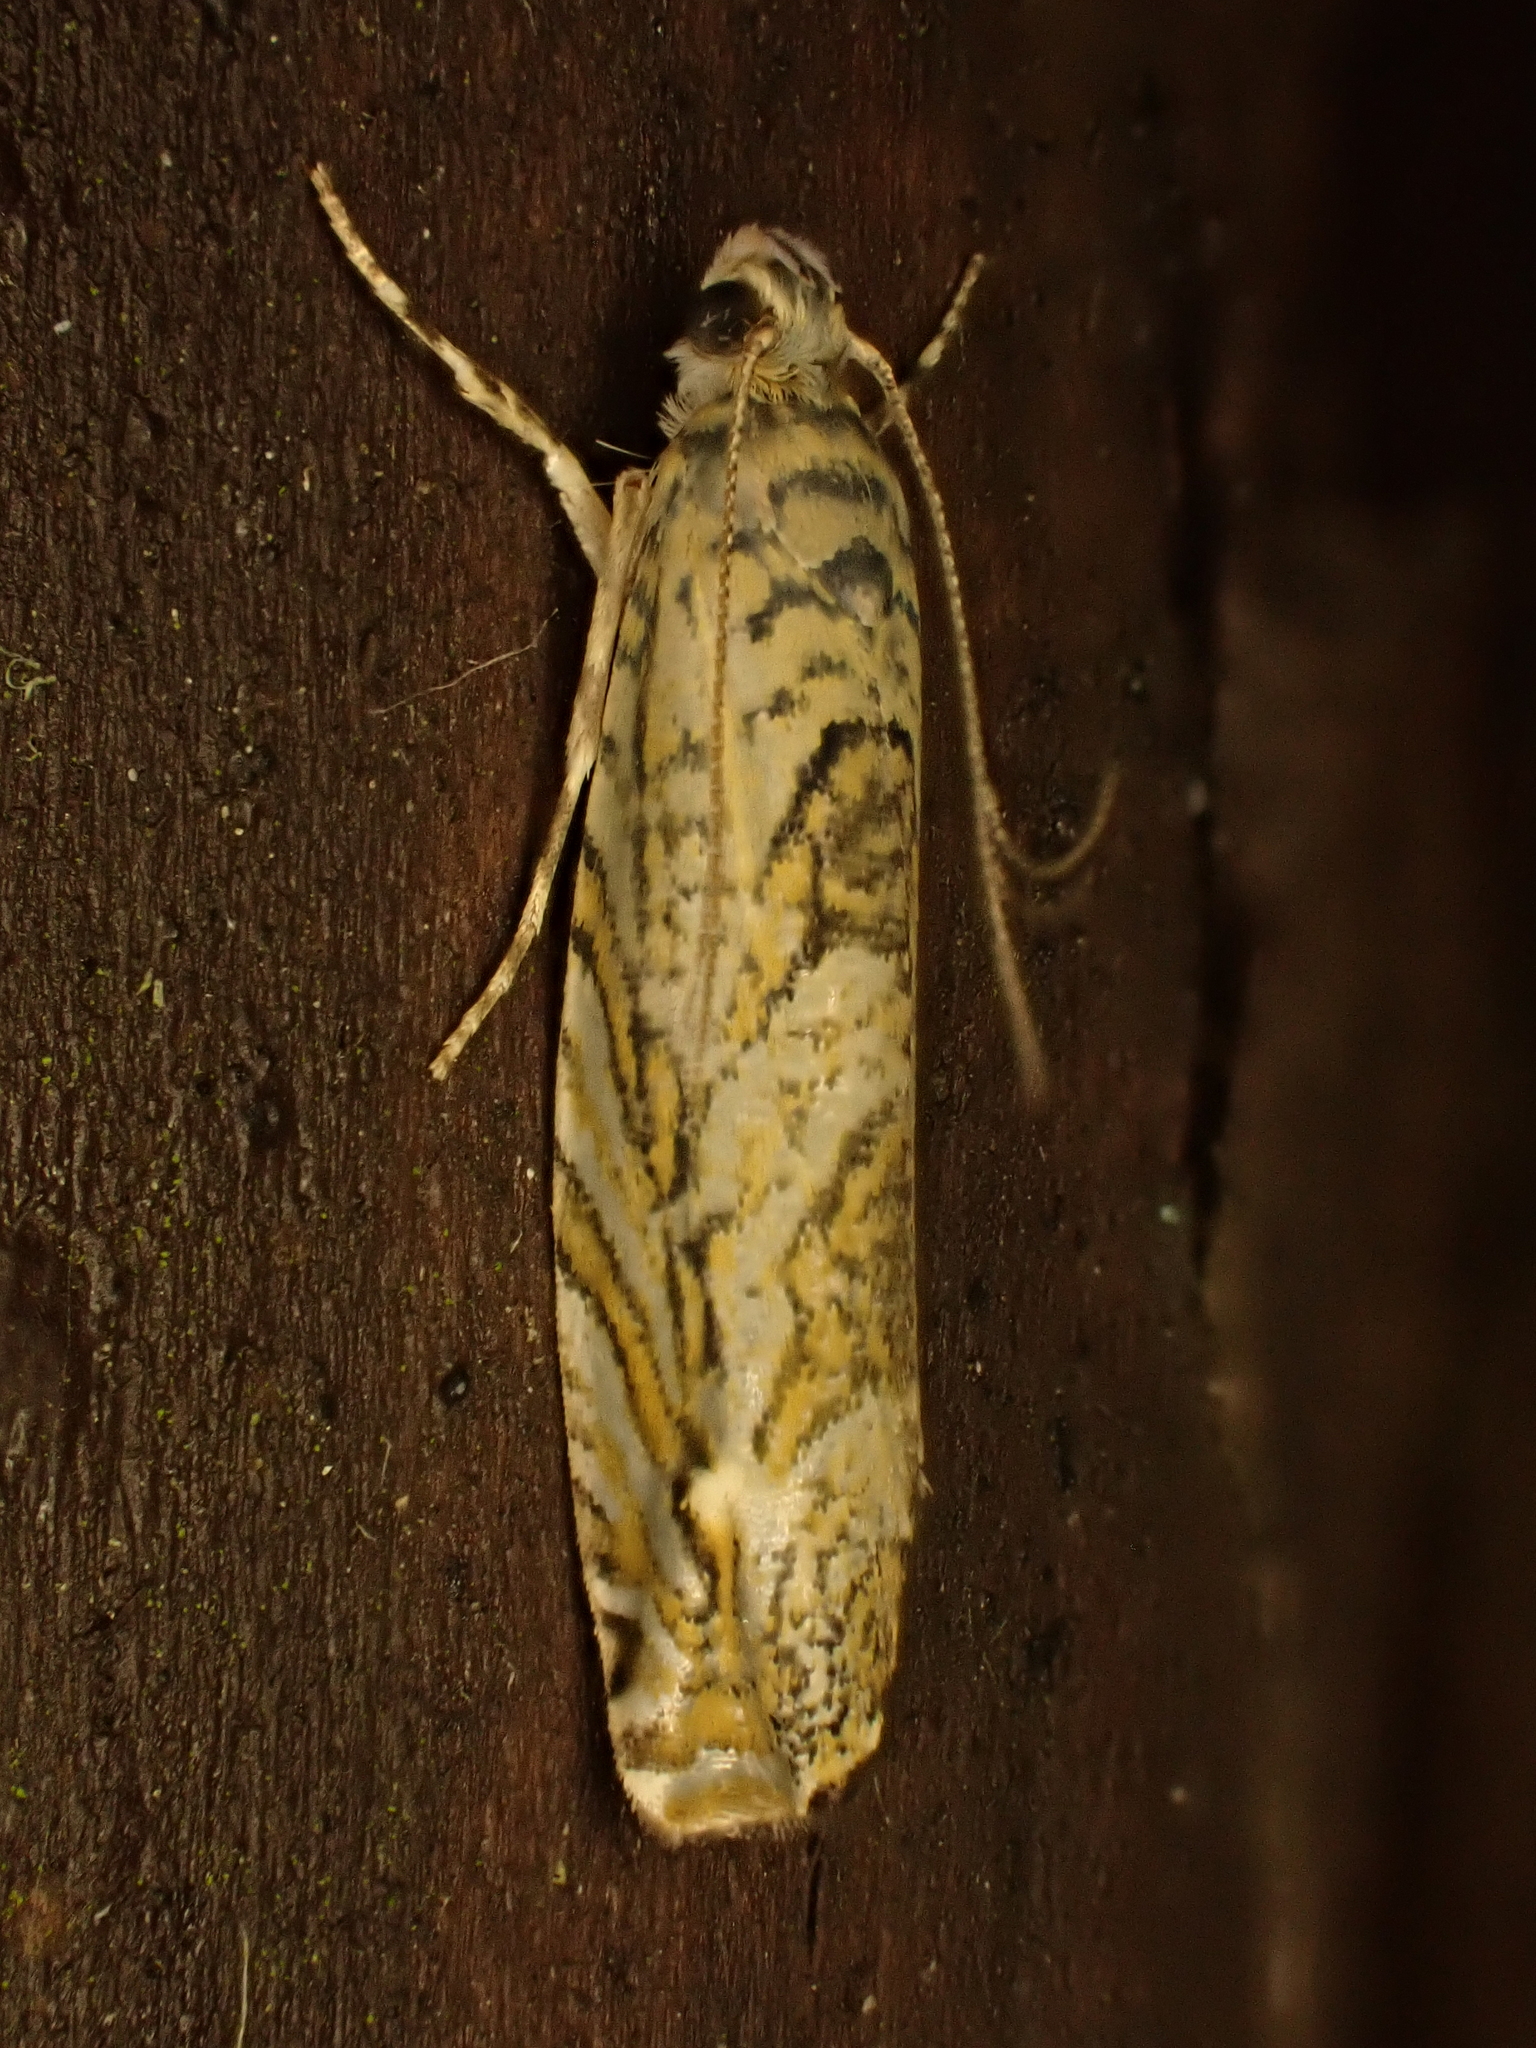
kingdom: Animalia
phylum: Arthropoda
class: Insecta
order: Lepidoptera
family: Plutellidae
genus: Doxophyrtis
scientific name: Doxophyrtis hydrocosma
